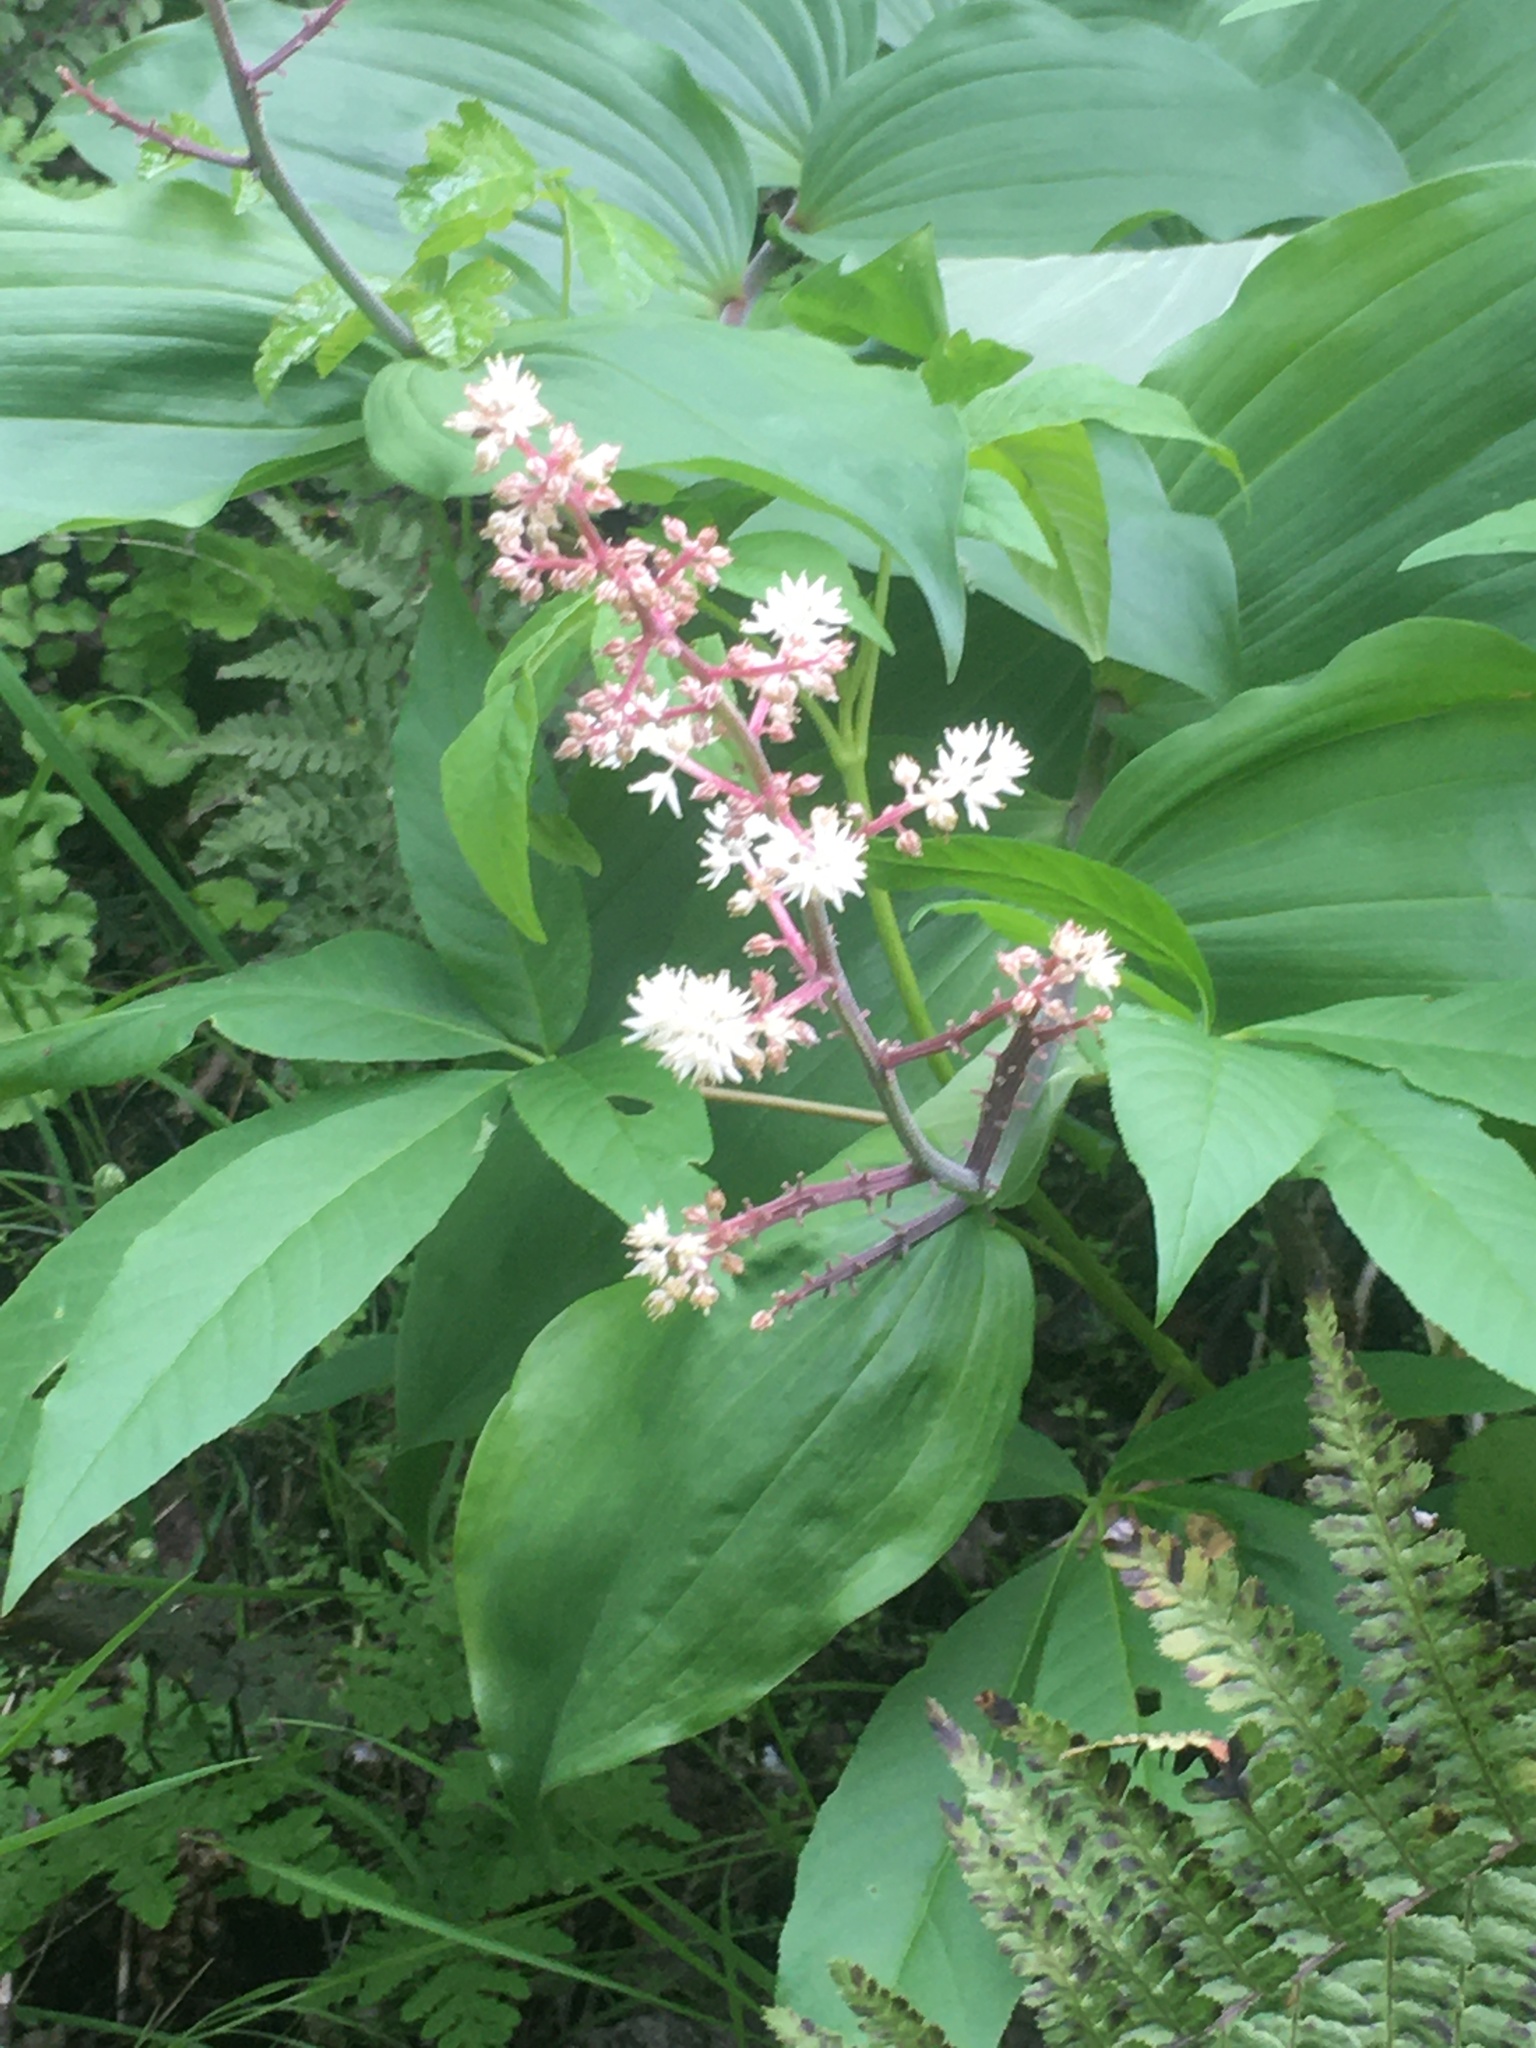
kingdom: Plantae
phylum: Tracheophyta
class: Liliopsida
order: Asparagales
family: Asparagaceae
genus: Maianthemum
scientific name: Maianthemum racemosum
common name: False spikenard
